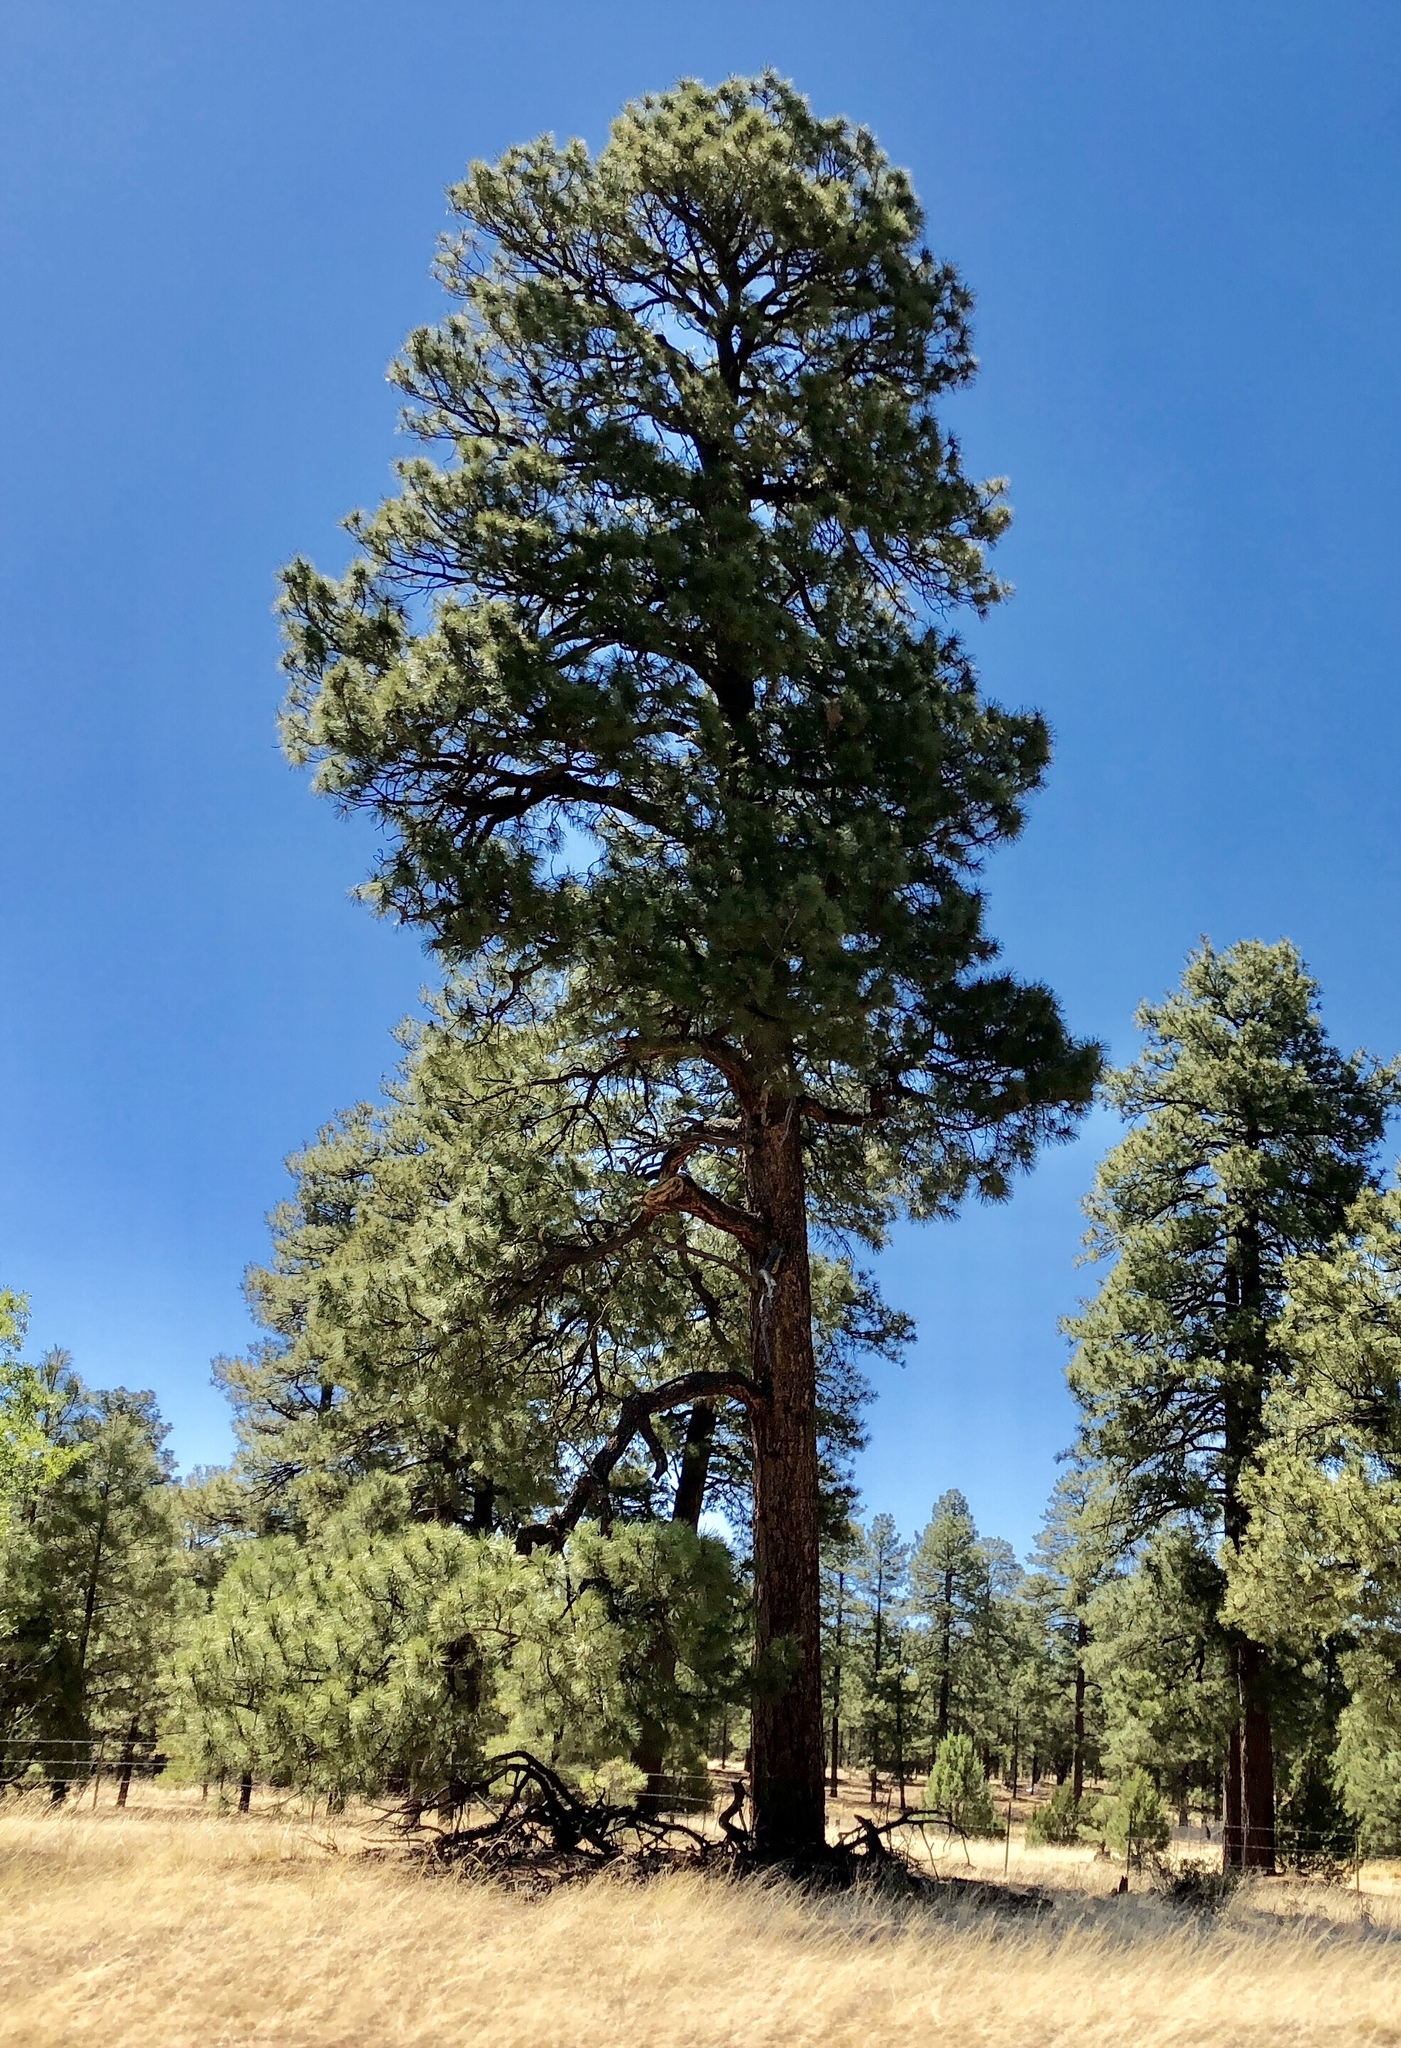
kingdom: Plantae
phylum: Tracheophyta
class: Pinopsida
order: Pinales
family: Pinaceae
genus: Pinus
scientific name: Pinus ponderosa
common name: Western yellow-pine
